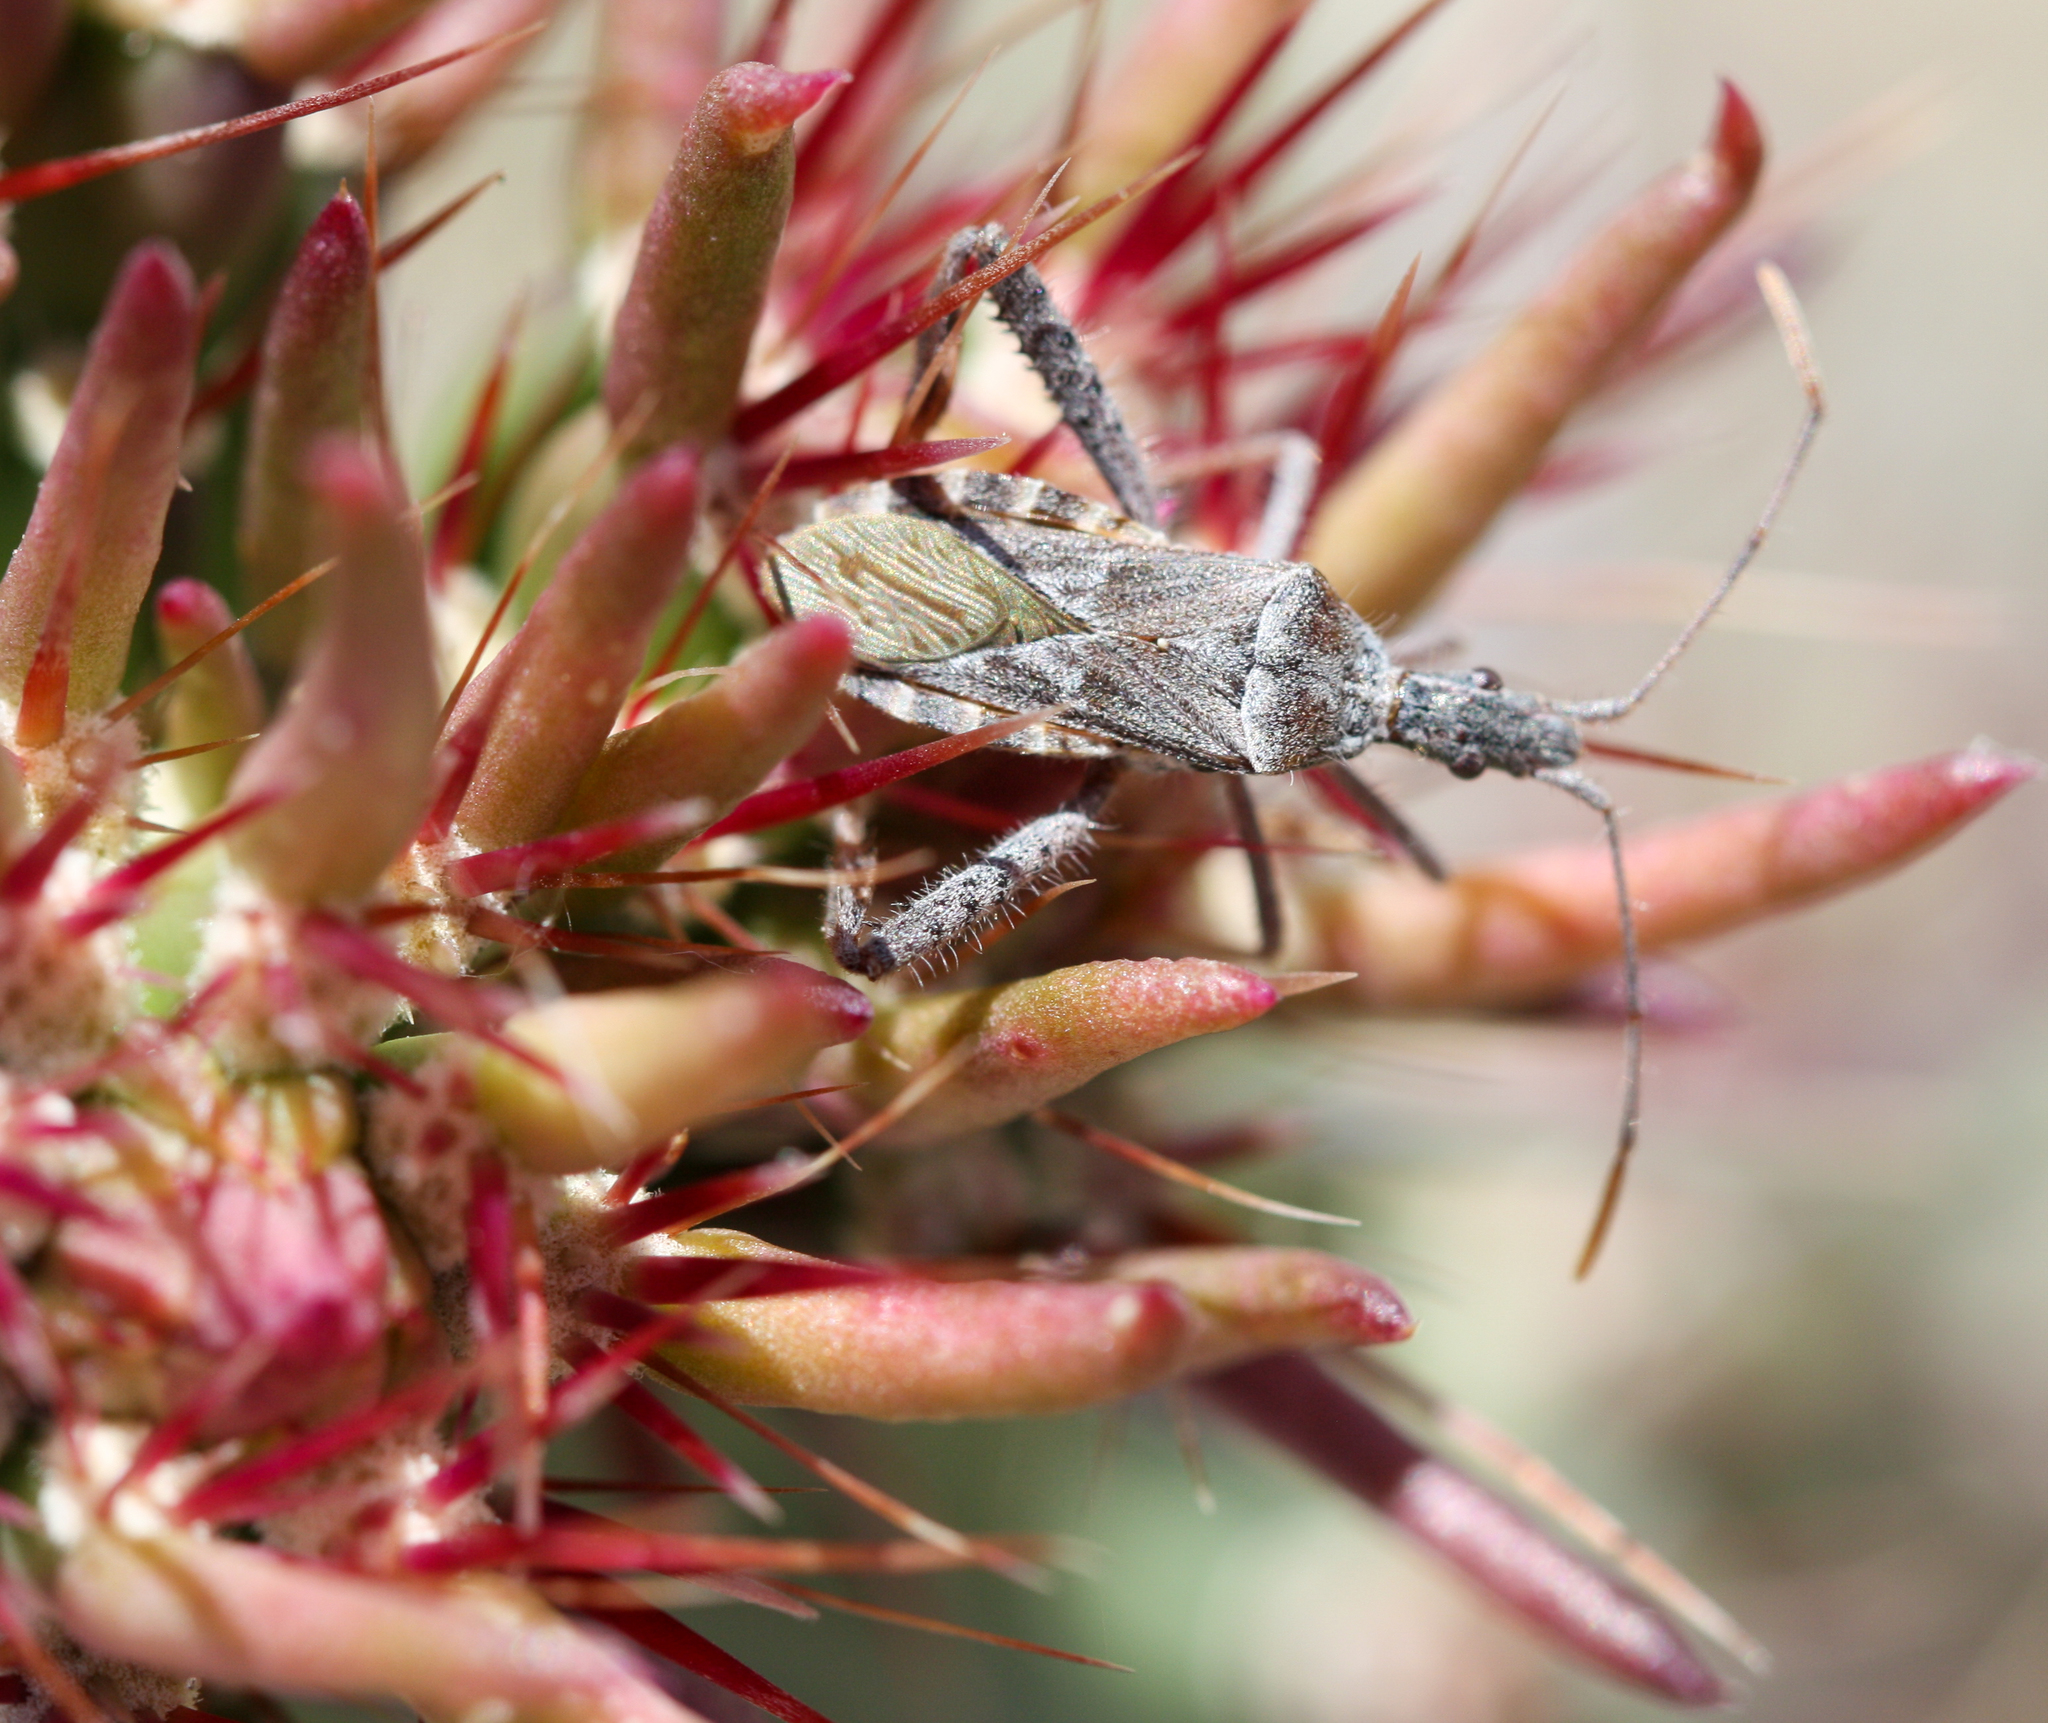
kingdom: Animalia
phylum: Arthropoda
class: Insecta
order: Hemiptera
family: Coreidae
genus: Narnia
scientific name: Narnia femorata
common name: Leaf-footed cactus bug
